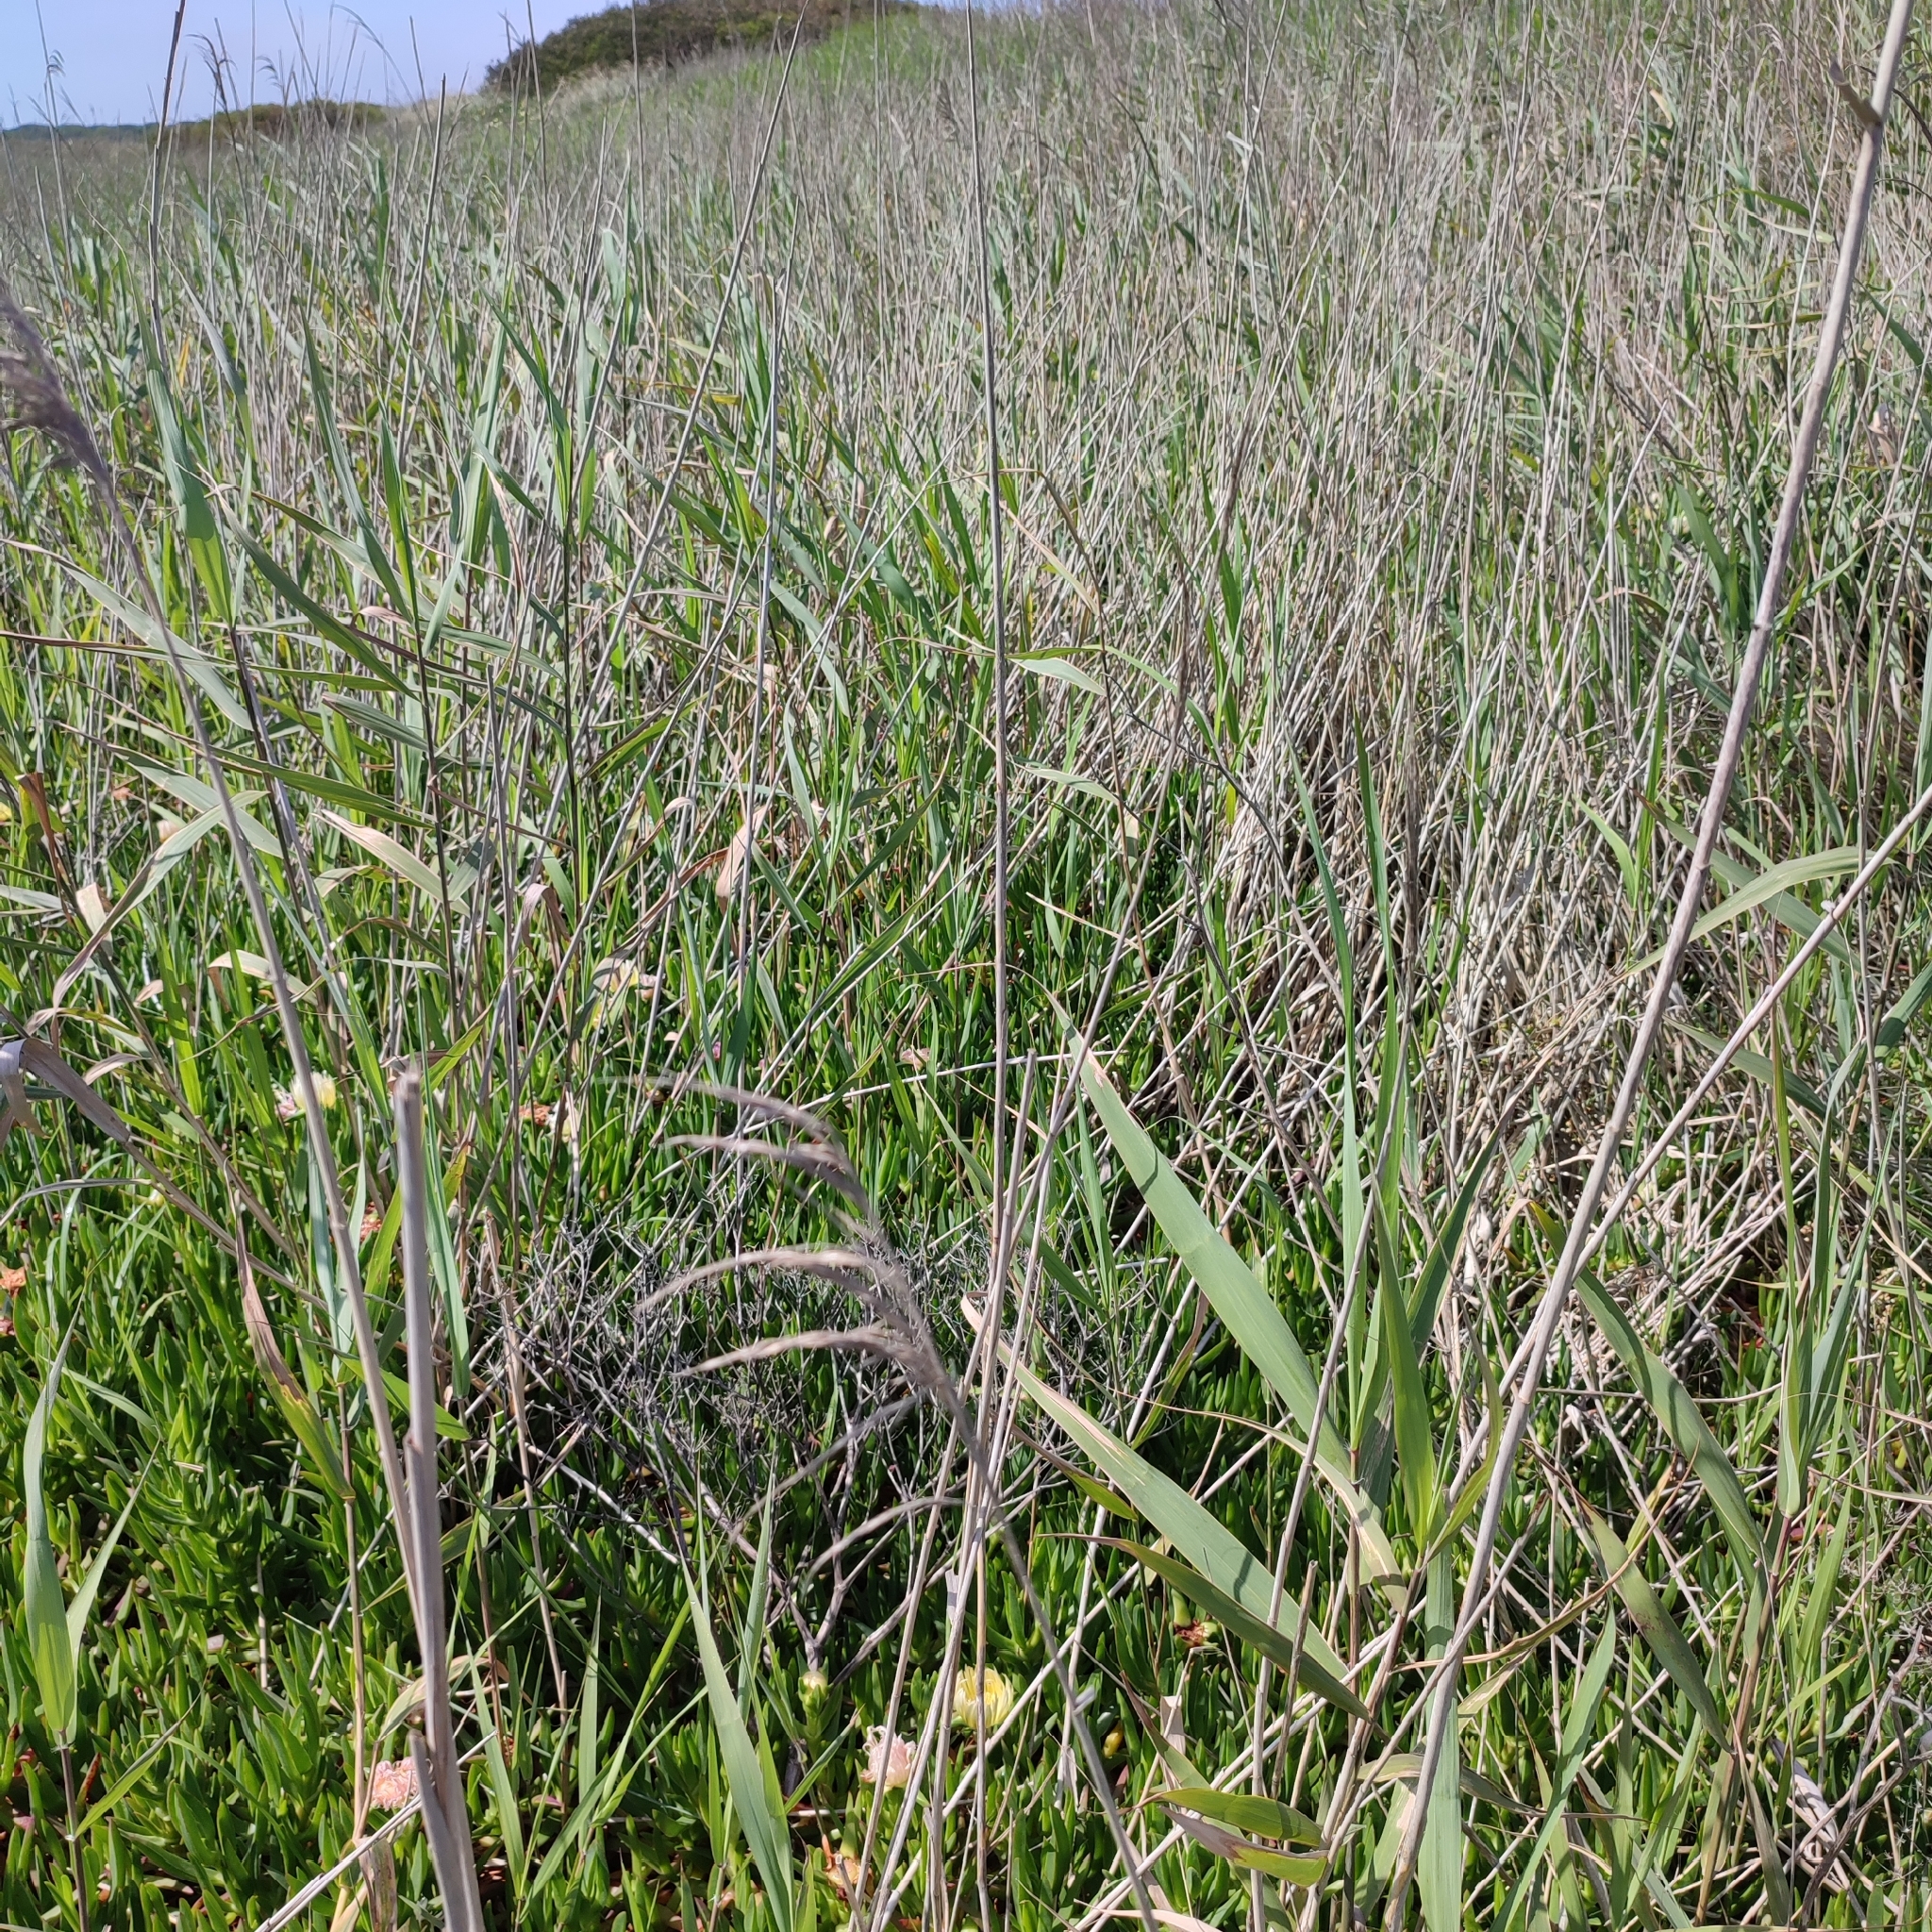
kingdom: Plantae
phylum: Tracheophyta
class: Liliopsida
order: Poales
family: Poaceae
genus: Phragmites
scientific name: Phragmites australis
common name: Common reed
